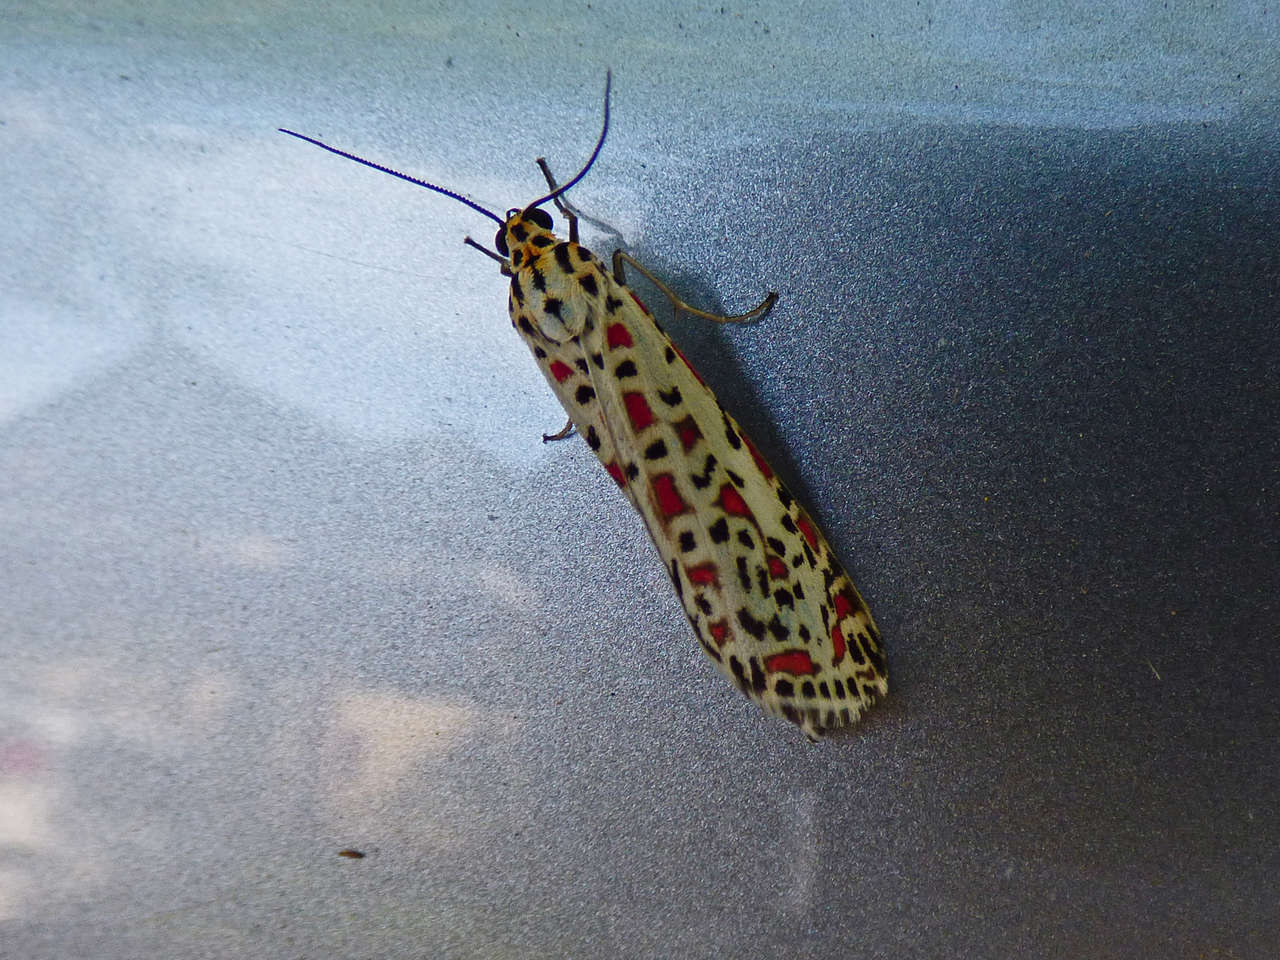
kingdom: Animalia
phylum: Arthropoda
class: Insecta
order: Lepidoptera
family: Erebidae
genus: Utetheisa
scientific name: Utetheisa pulchelloides
